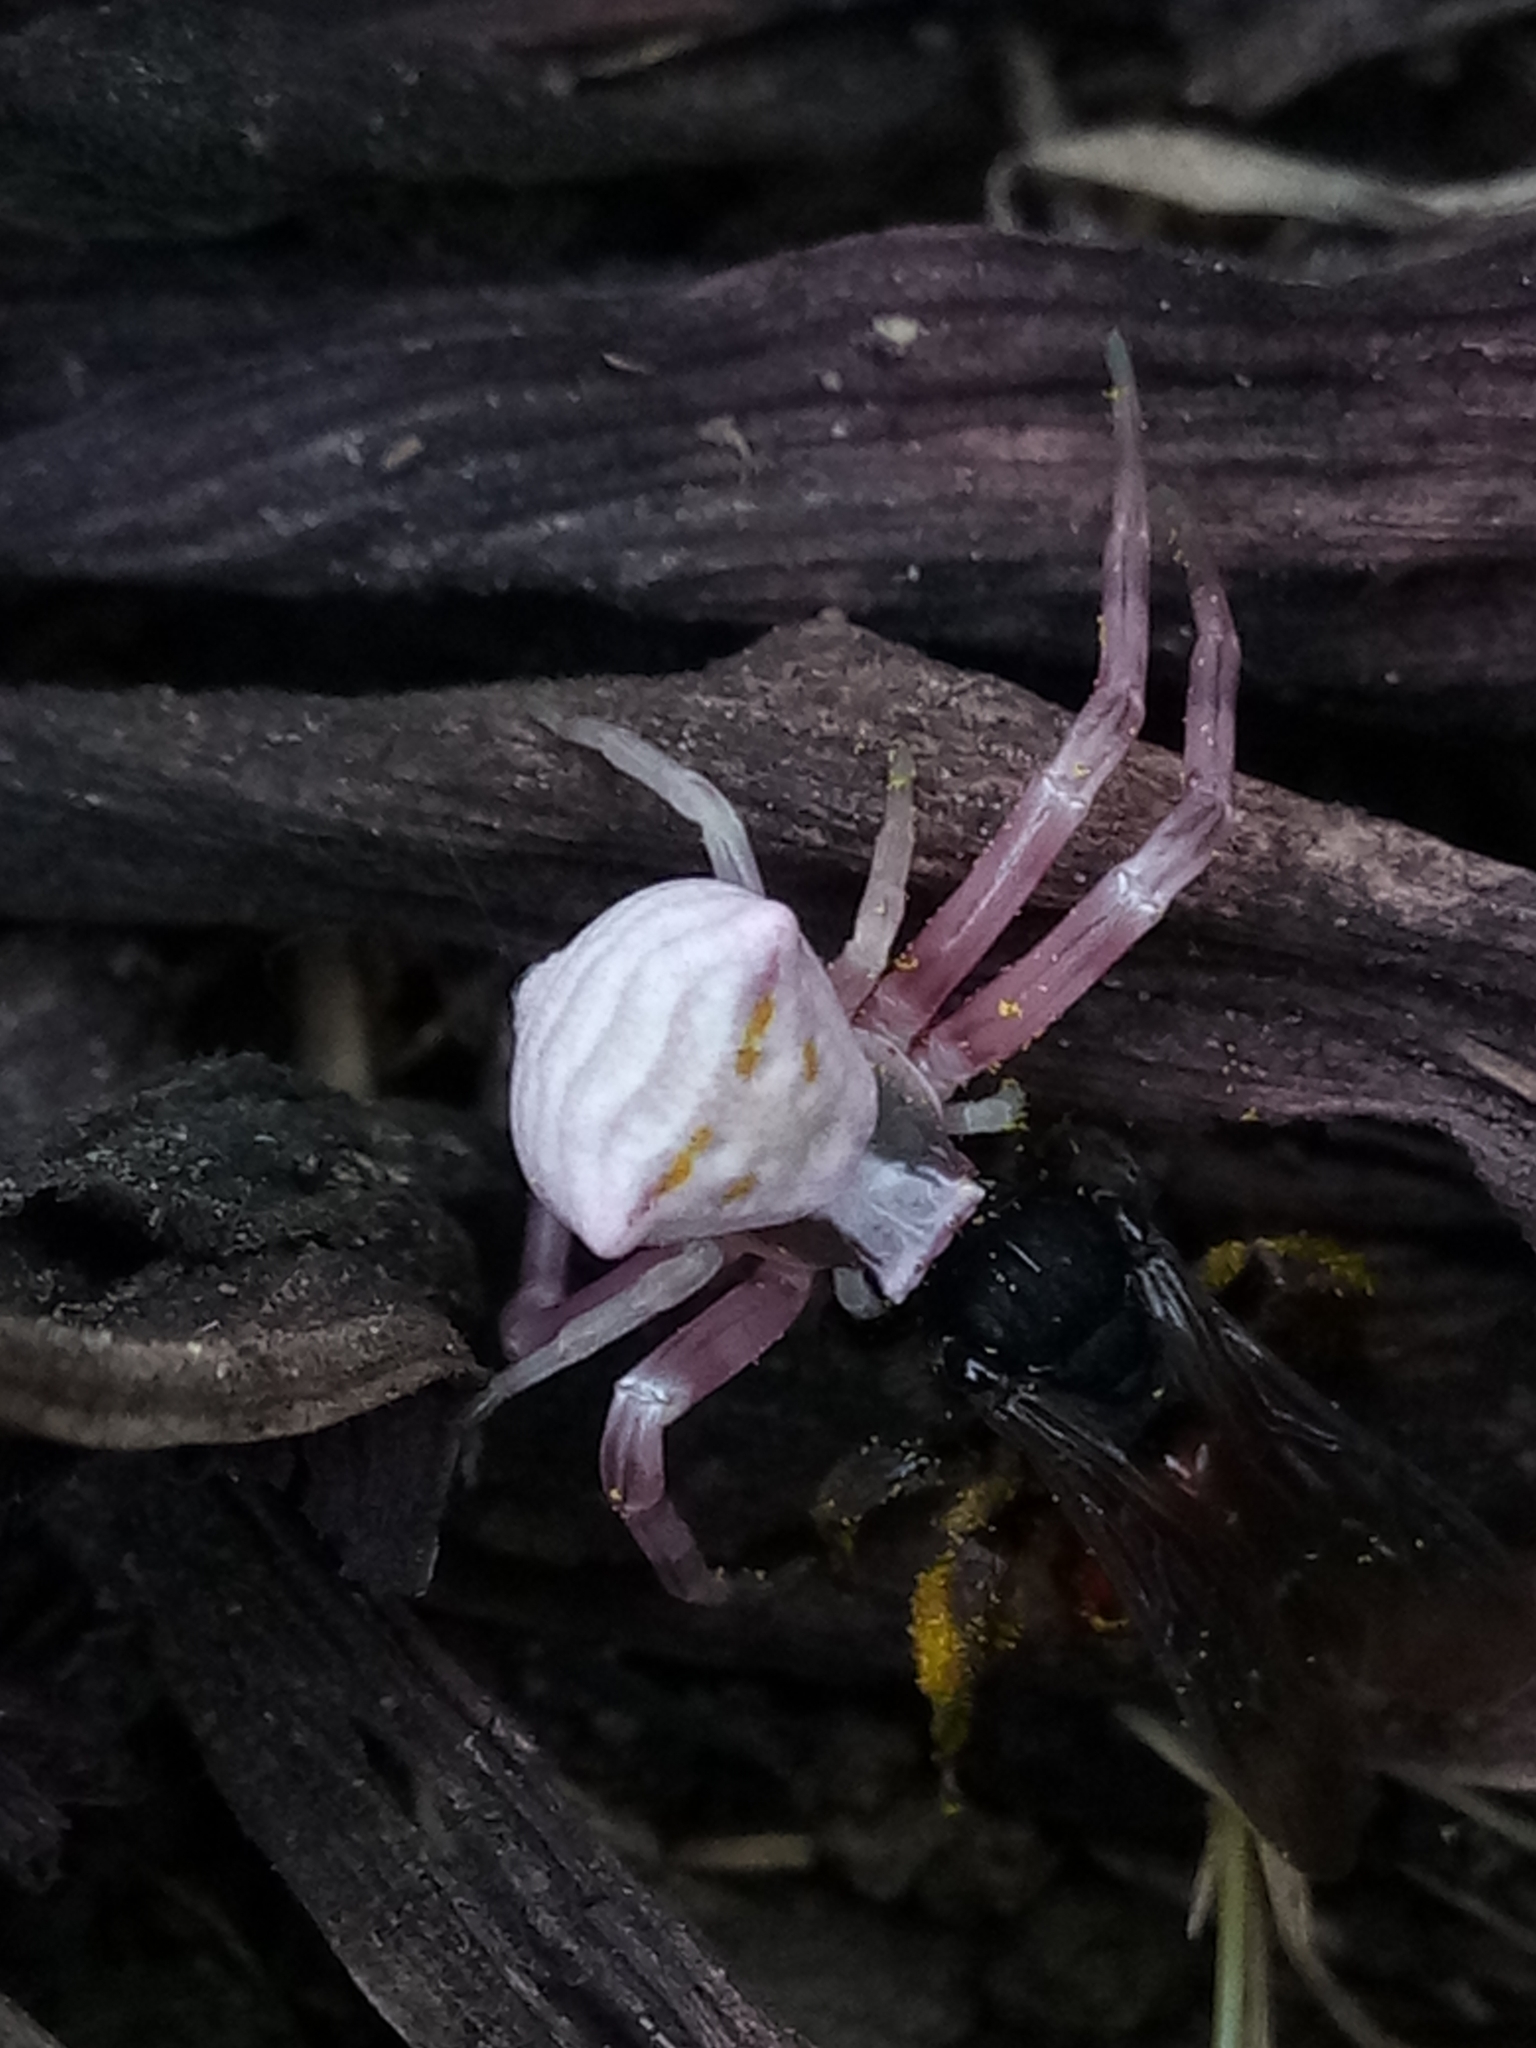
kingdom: Animalia
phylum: Arthropoda
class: Arachnida
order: Araneae
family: Thomisidae
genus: Thomisus
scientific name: Thomisus onustus
